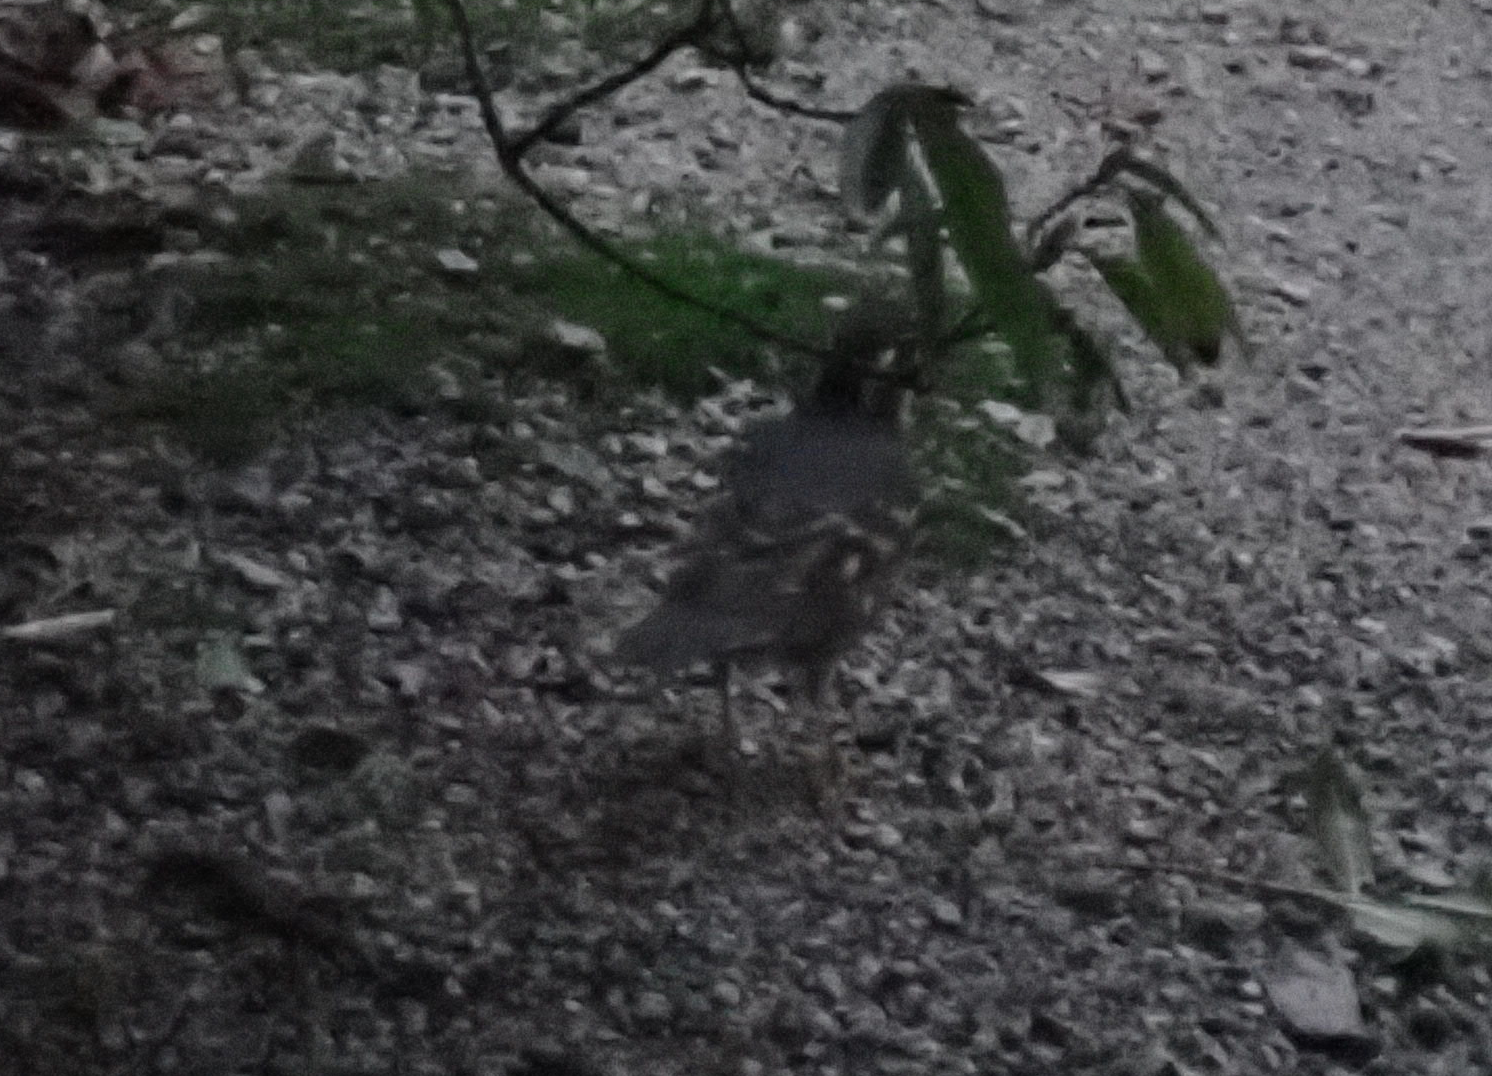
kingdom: Animalia
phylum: Chordata
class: Aves
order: Passeriformes
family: Turdidae
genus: Ixoreus
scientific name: Ixoreus naevius
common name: Varied thrush
